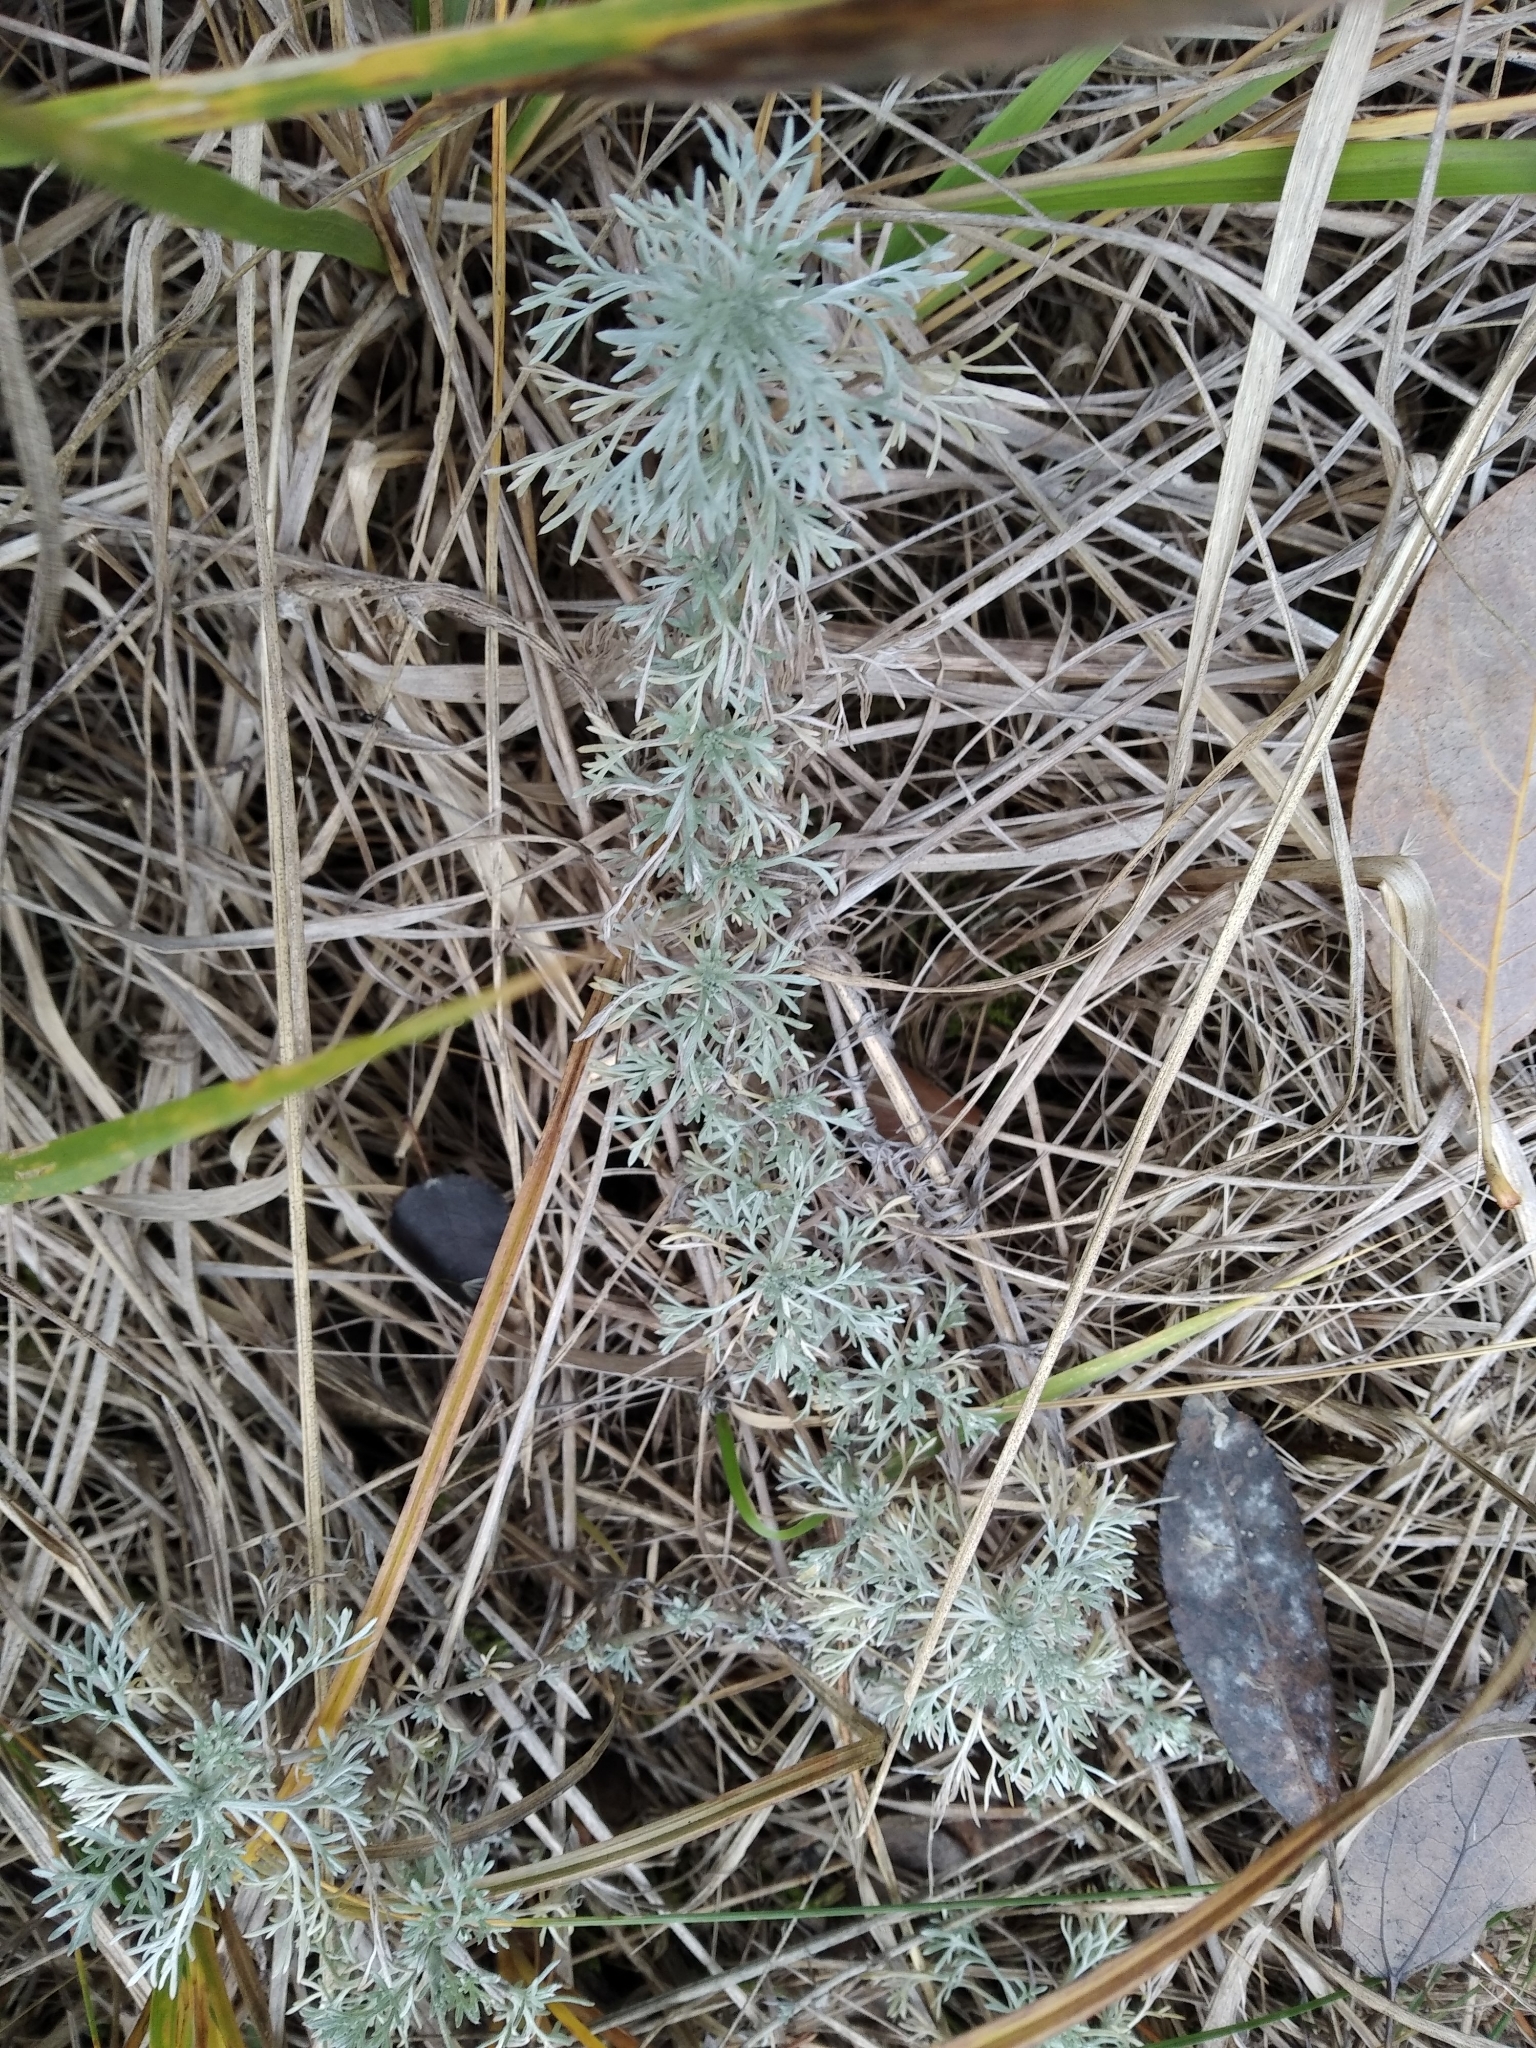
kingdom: Plantae
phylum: Tracheophyta
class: Magnoliopsida
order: Asterales
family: Asteraceae
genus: Artemisia
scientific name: Artemisia austriaca
